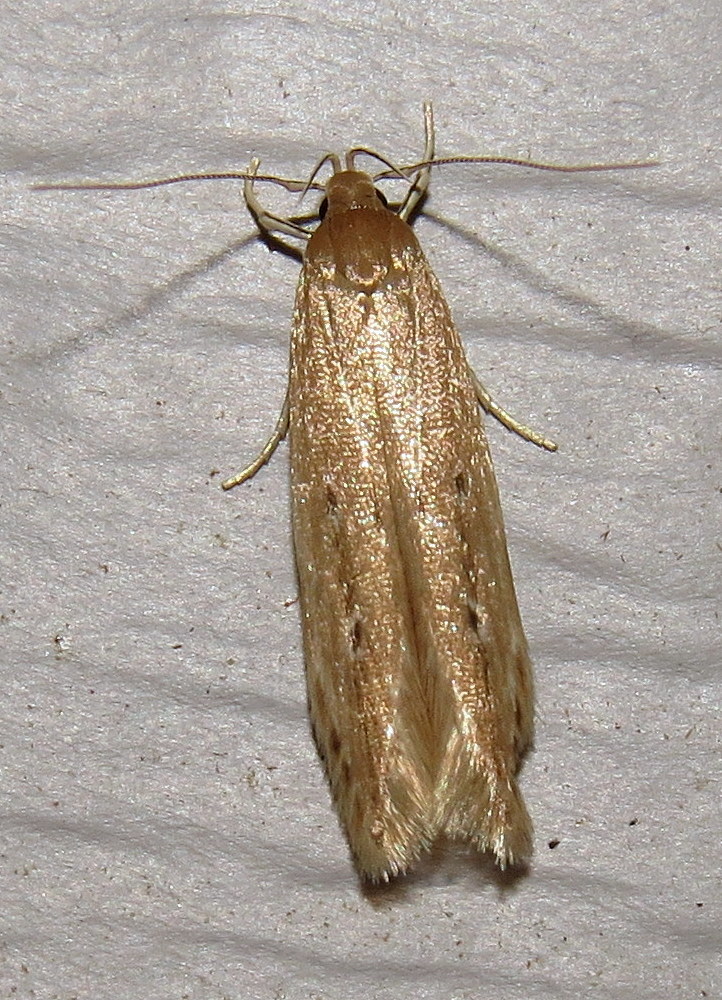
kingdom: Animalia
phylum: Arthropoda
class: Insecta
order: Lepidoptera
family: Cosmopterigidae
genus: Limnaecia
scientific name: Limnaecia phragmitella
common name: Bulrush cosmet
